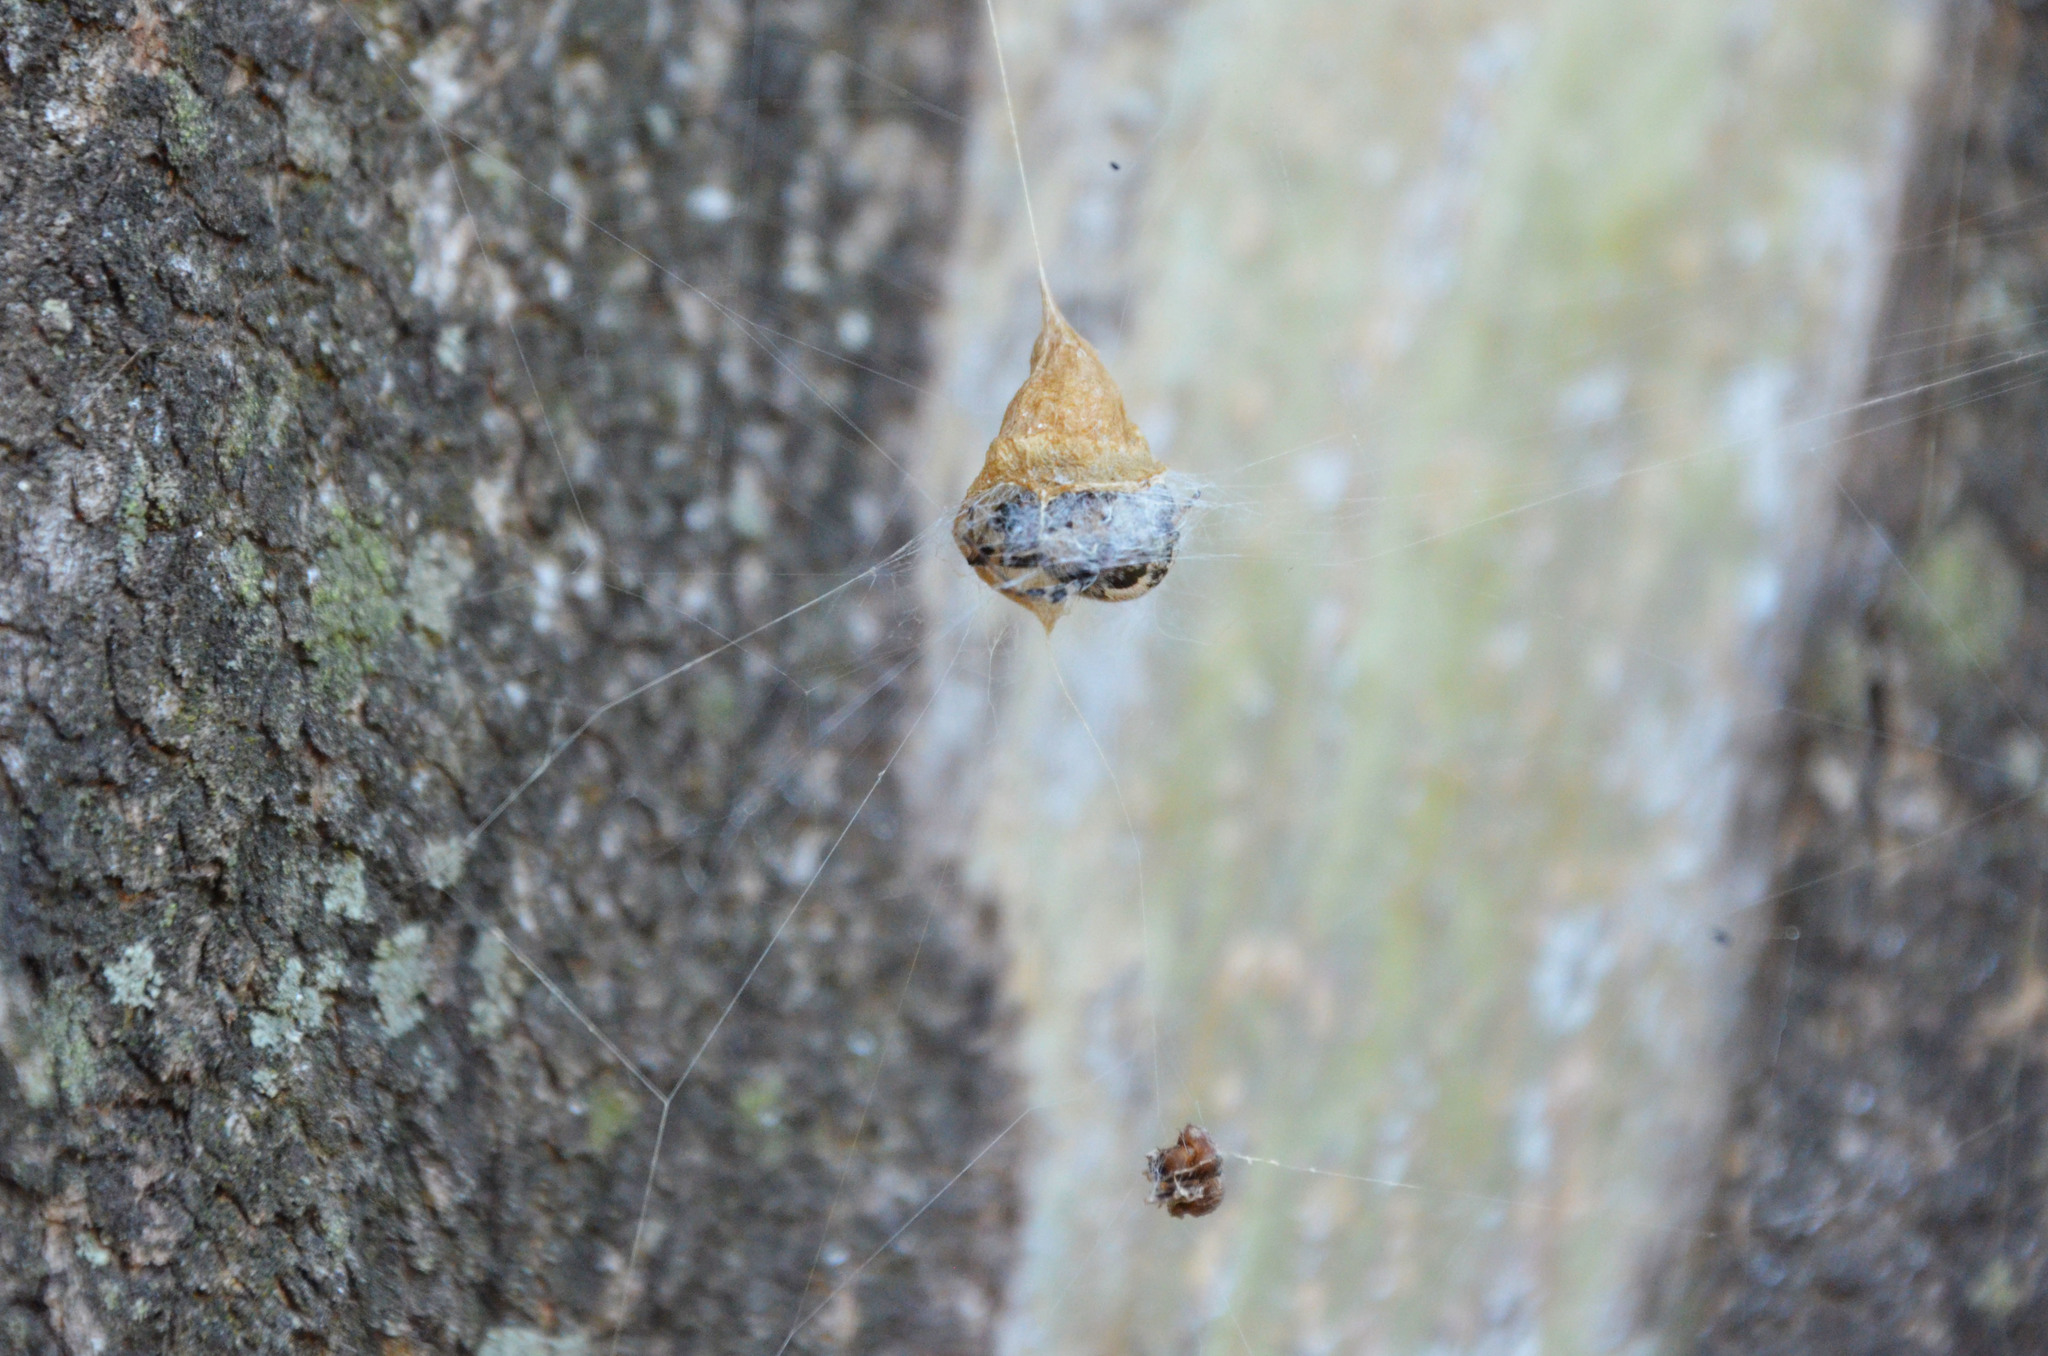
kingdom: Animalia
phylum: Arthropoda
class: Arachnida
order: Araneae
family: Araneidae
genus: Metepeira
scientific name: Metepeira
